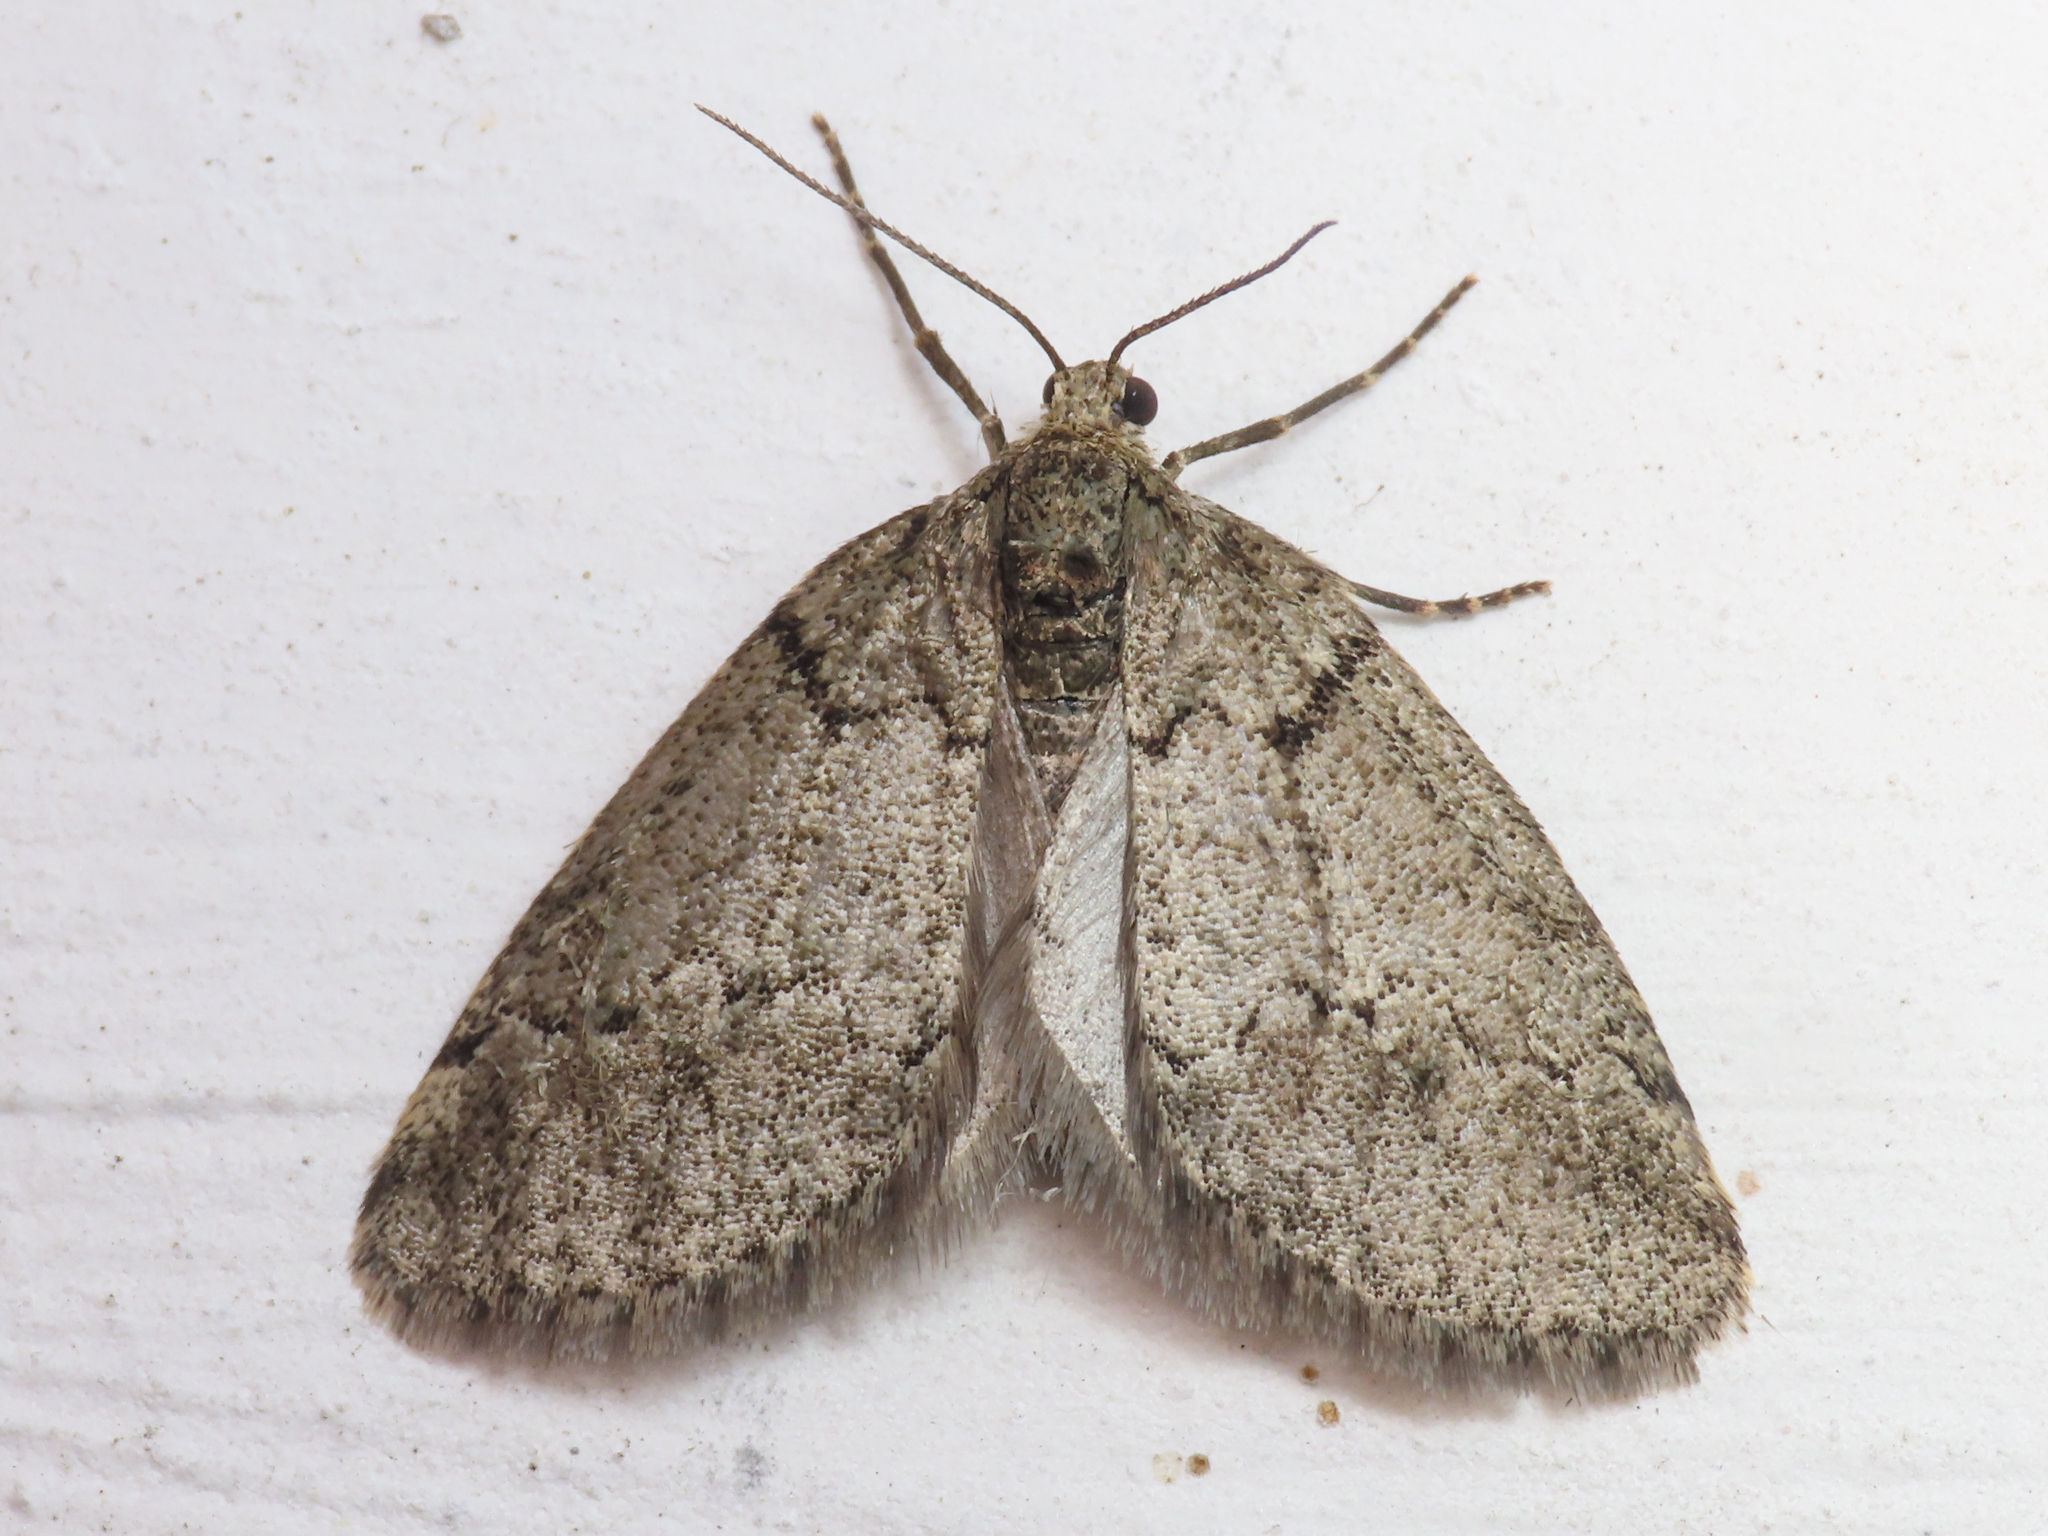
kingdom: Animalia
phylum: Arthropoda
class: Insecta
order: Lepidoptera
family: Geometridae
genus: Tephronia
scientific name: Tephronia theophilaria
